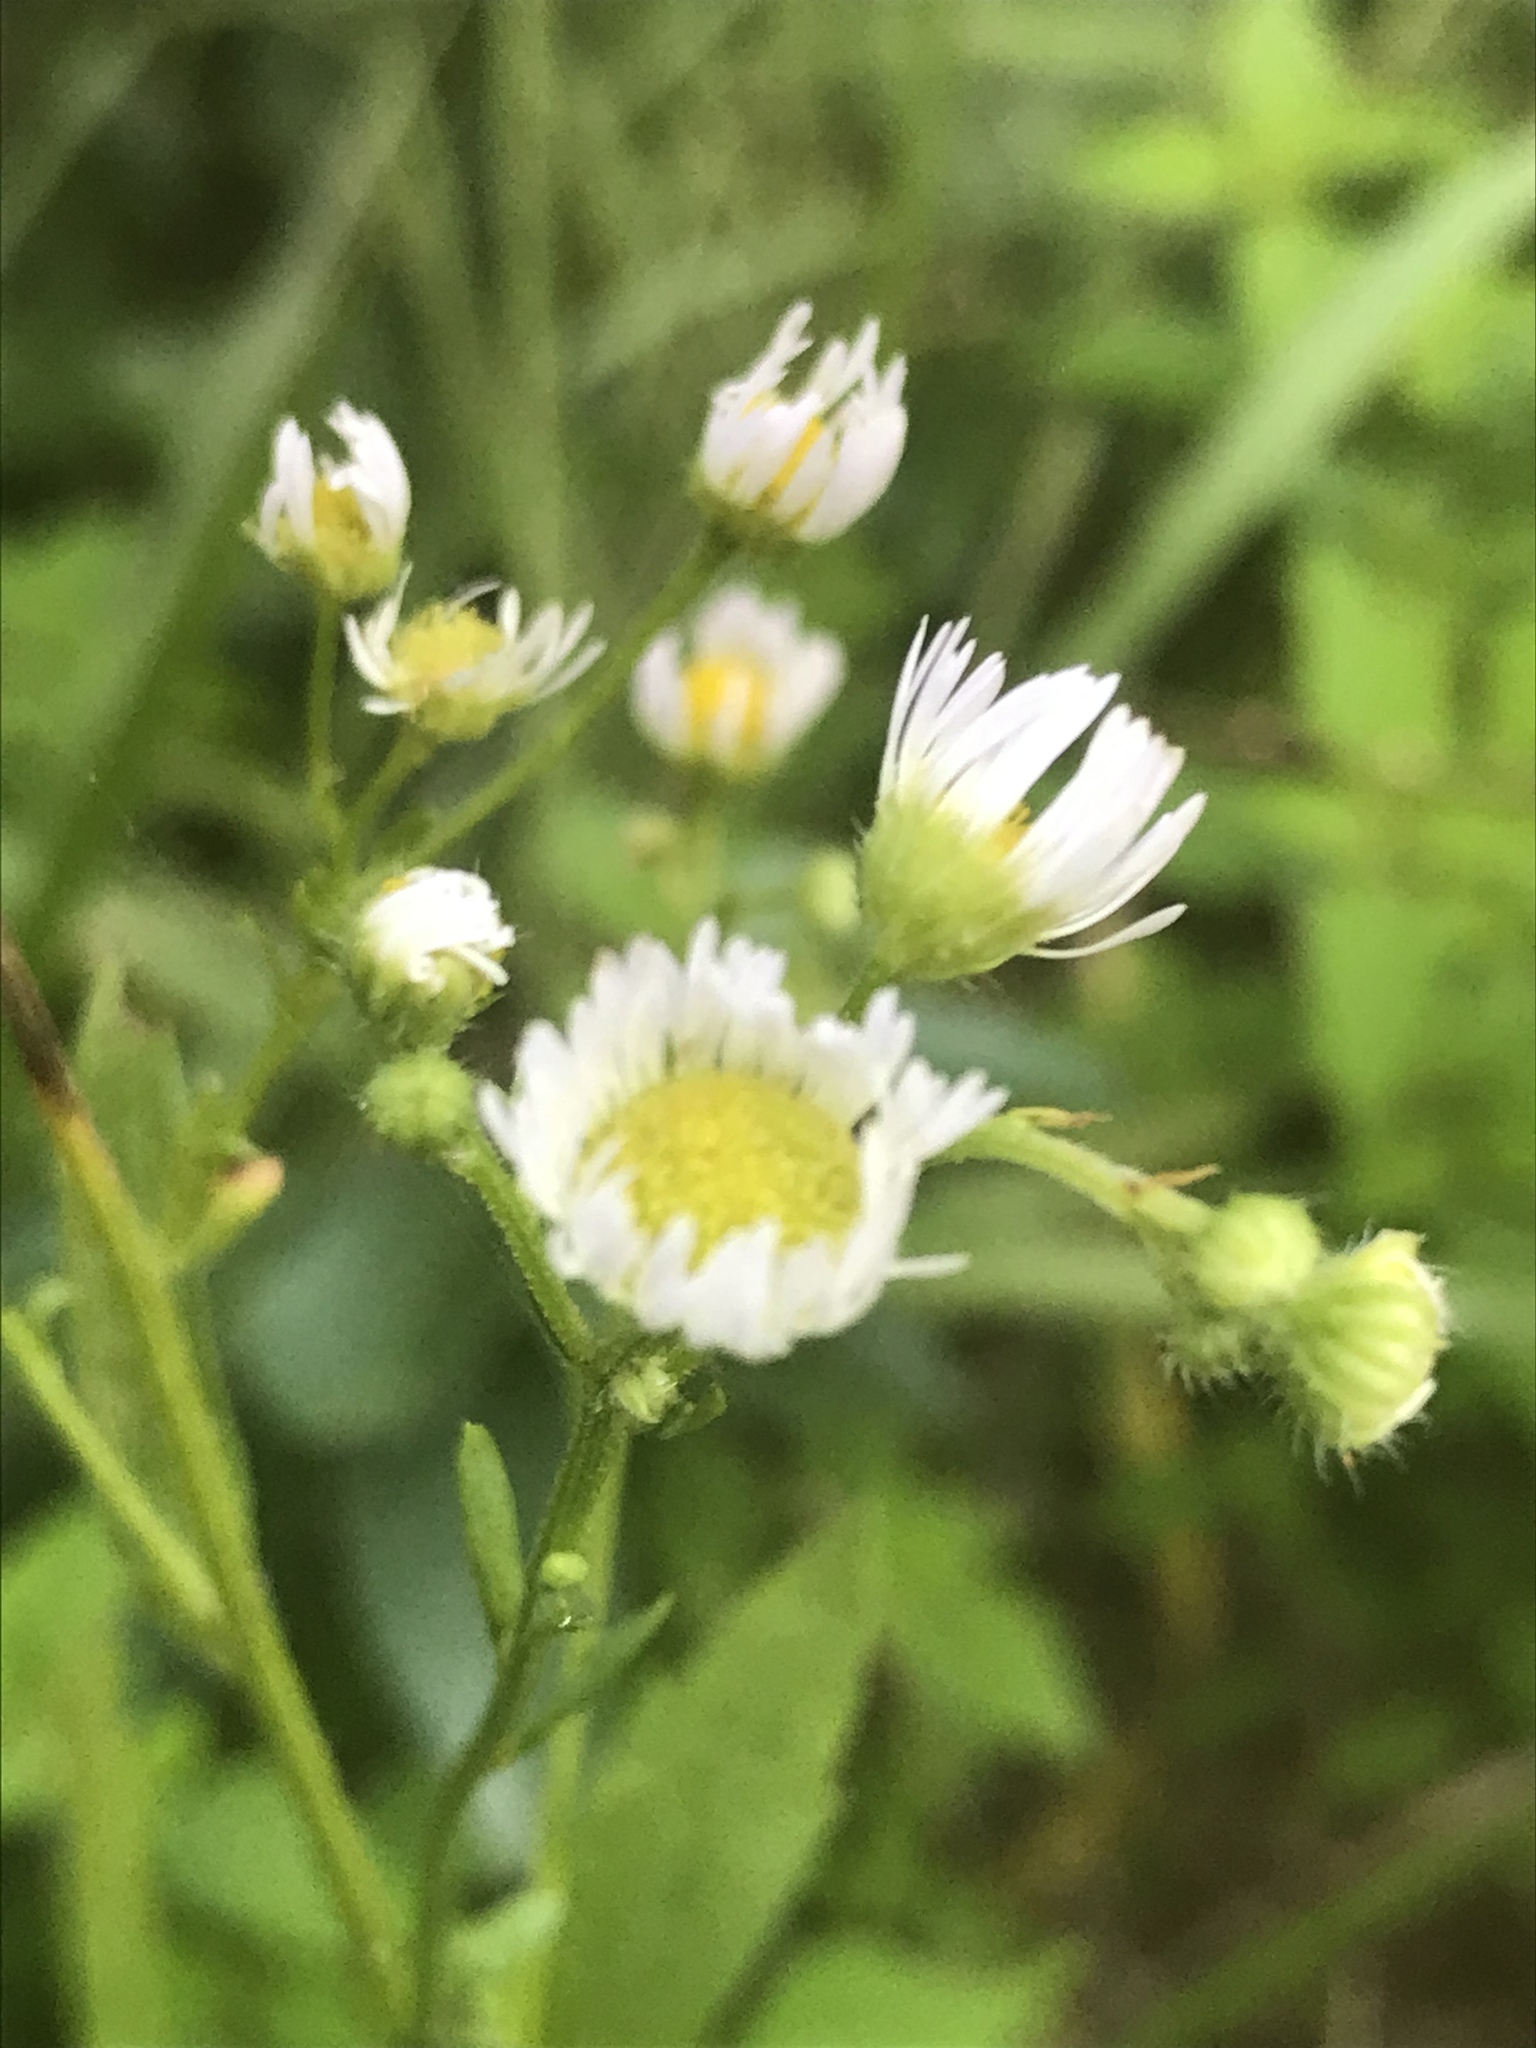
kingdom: Plantae
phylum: Tracheophyta
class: Magnoliopsida
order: Asterales
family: Asteraceae
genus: Erigeron
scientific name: Erigeron annuus
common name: Tall fleabane
